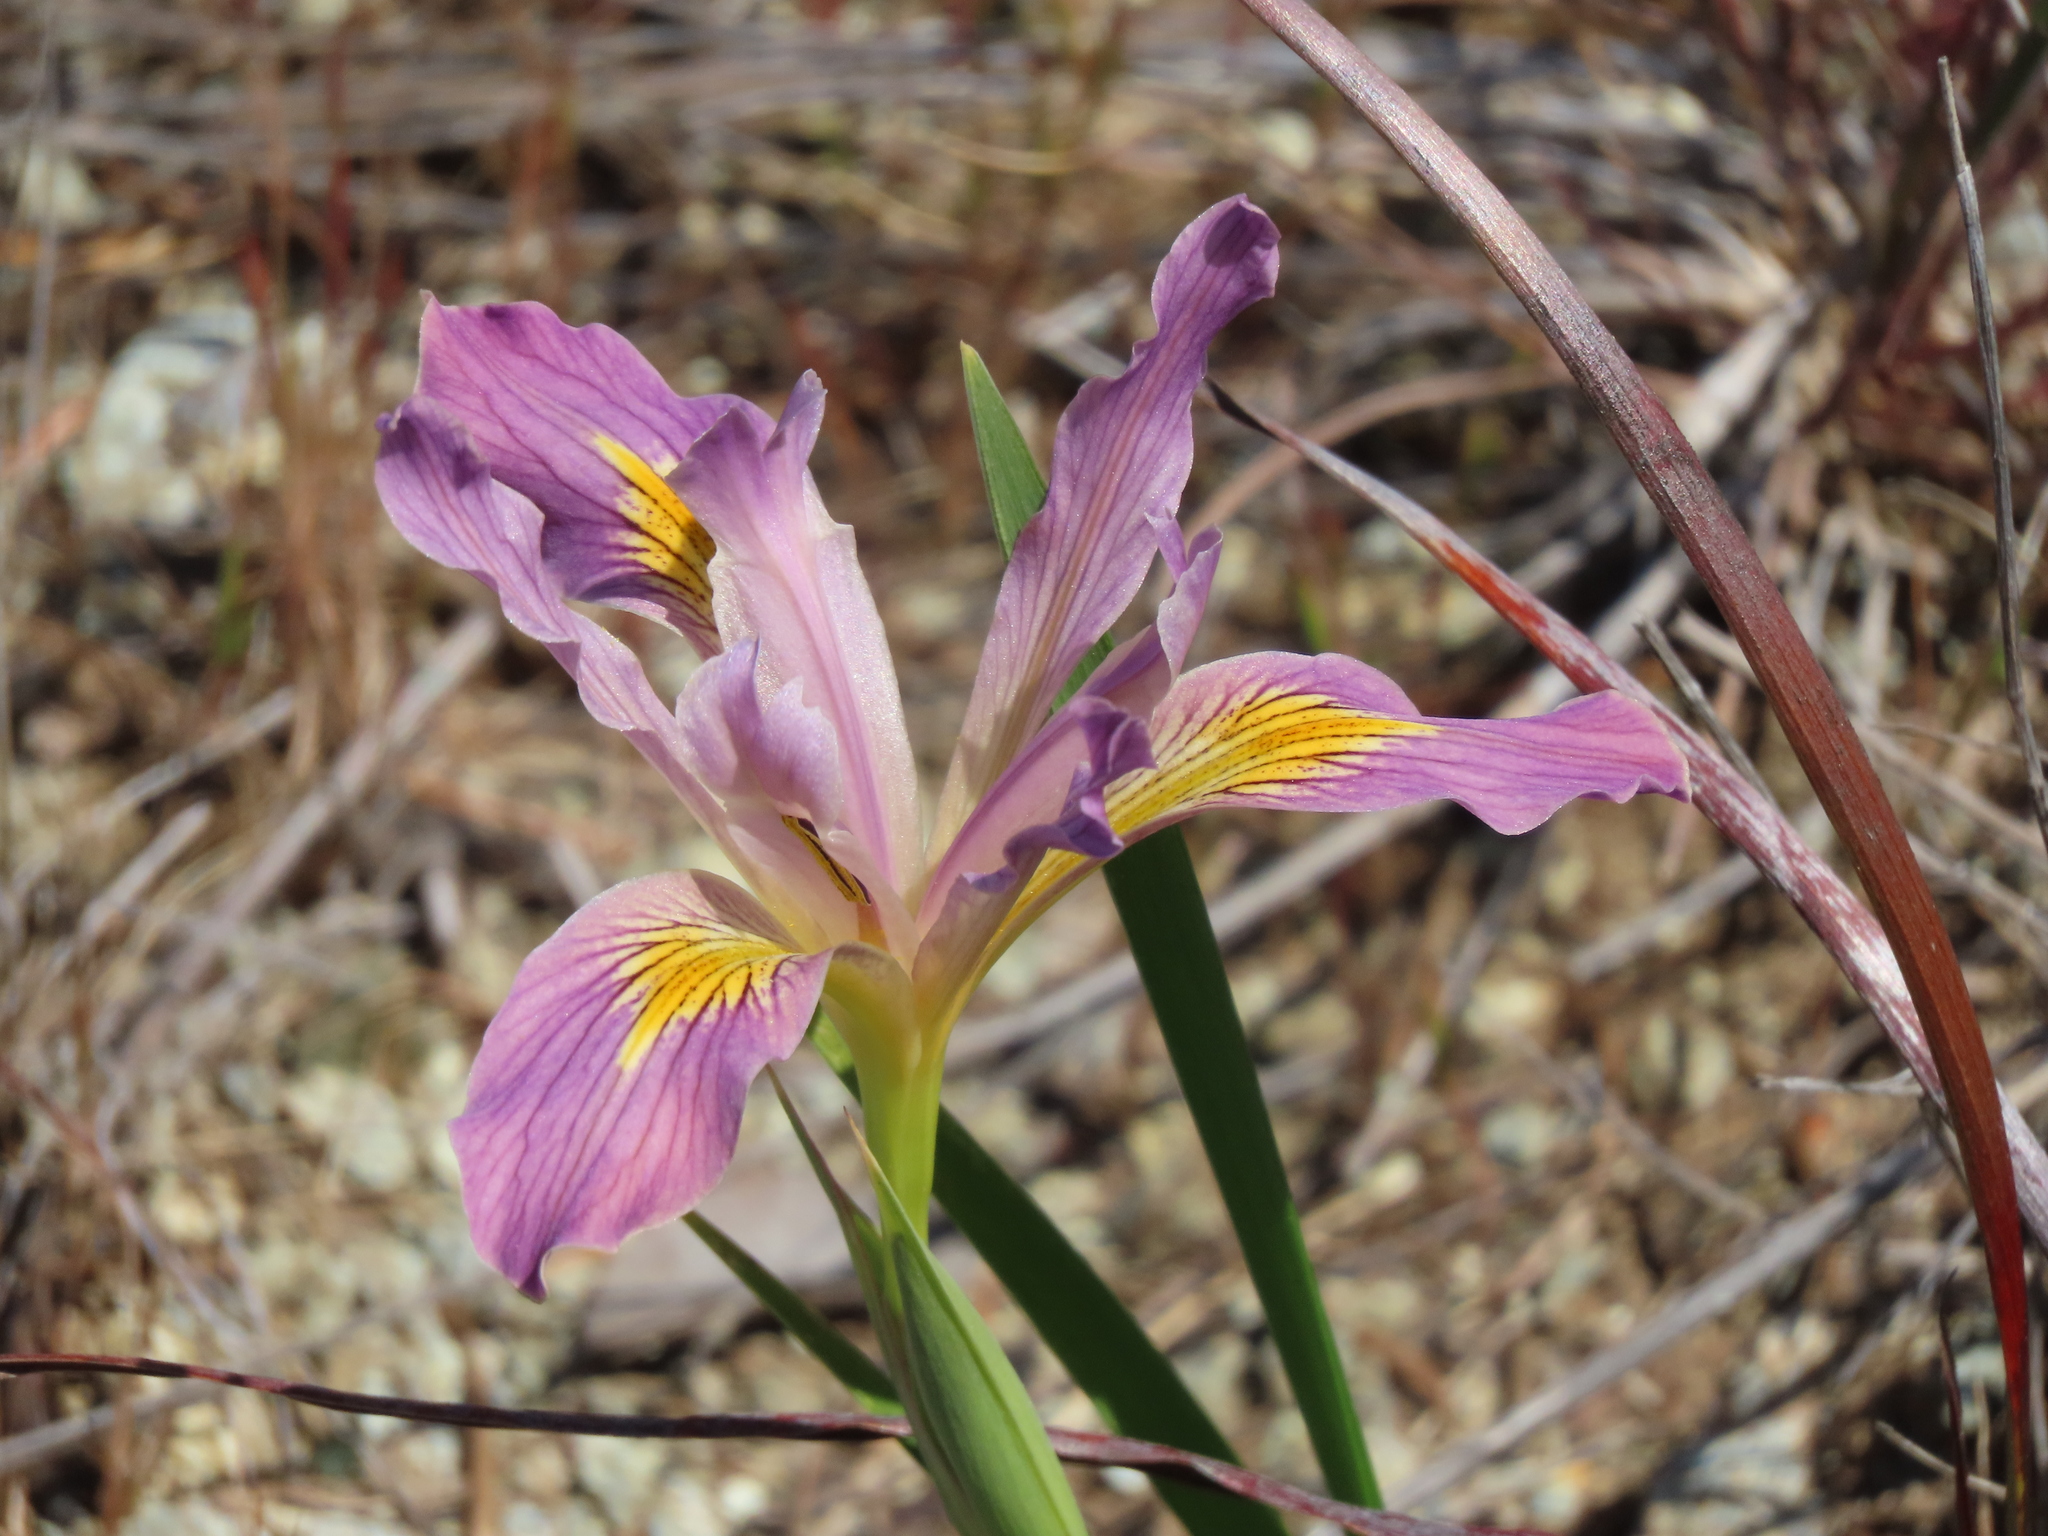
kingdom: Plantae
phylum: Tracheophyta
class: Liliopsida
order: Asparagales
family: Iridaceae
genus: Iris
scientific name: Iris douglasiana
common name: Marin iris
